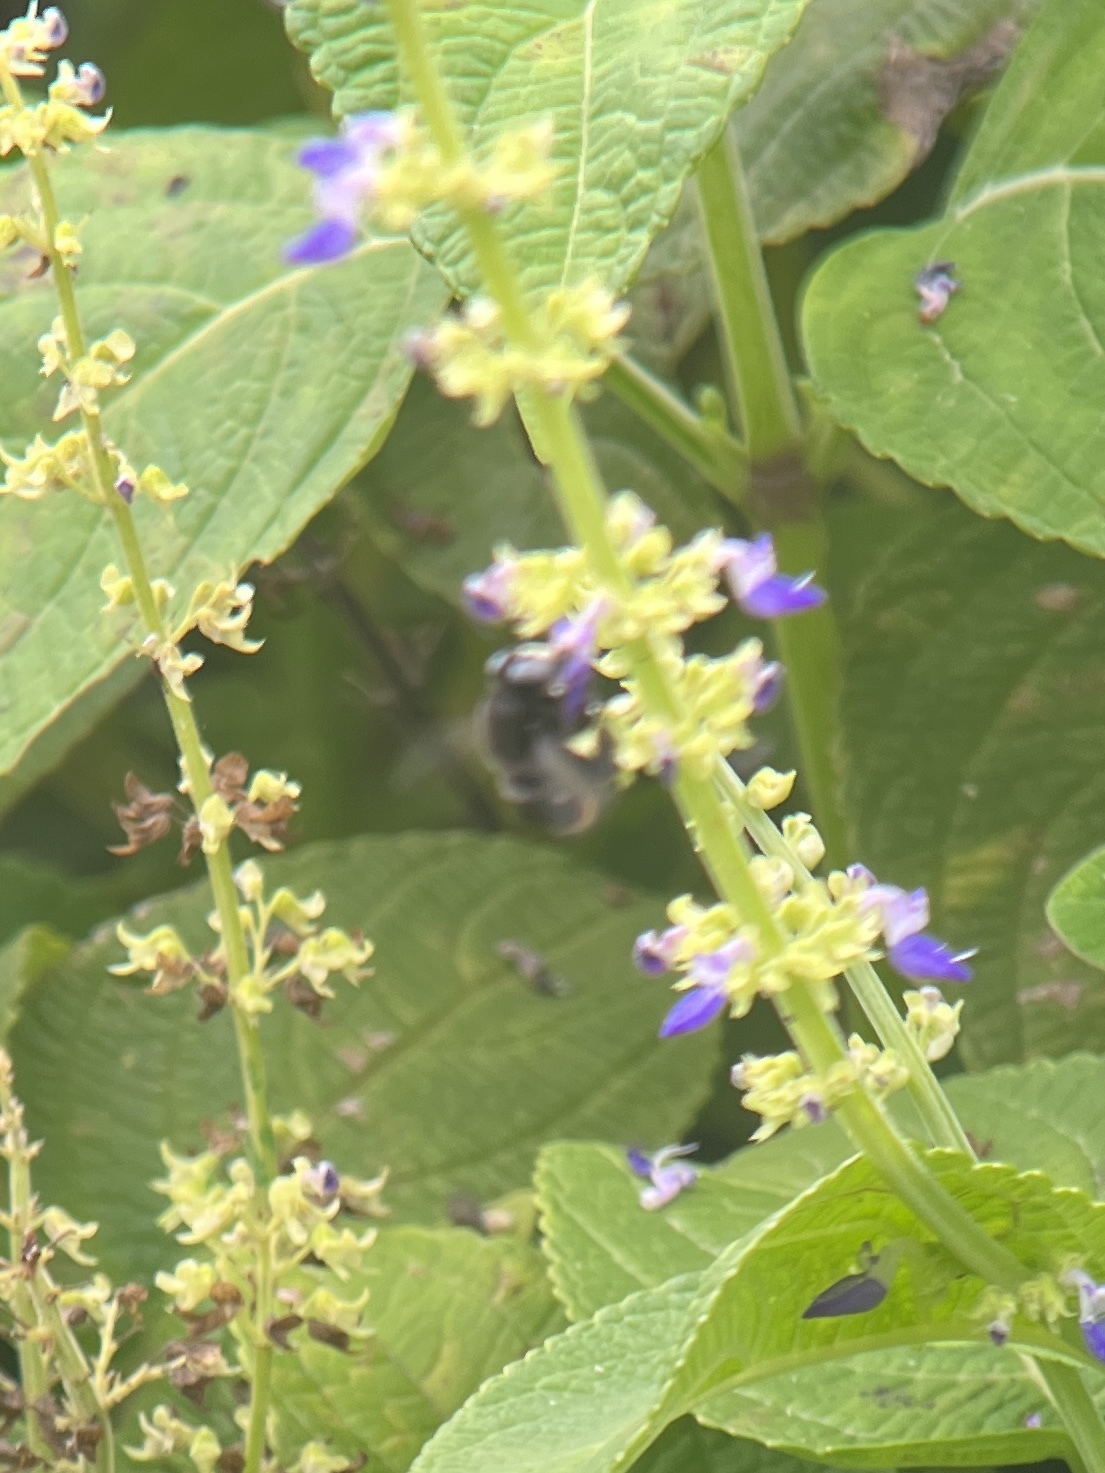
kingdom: Animalia
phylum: Arthropoda
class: Insecta
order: Hymenoptera
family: Apidae
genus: Centris
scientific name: Centris haemorrhoidalis
